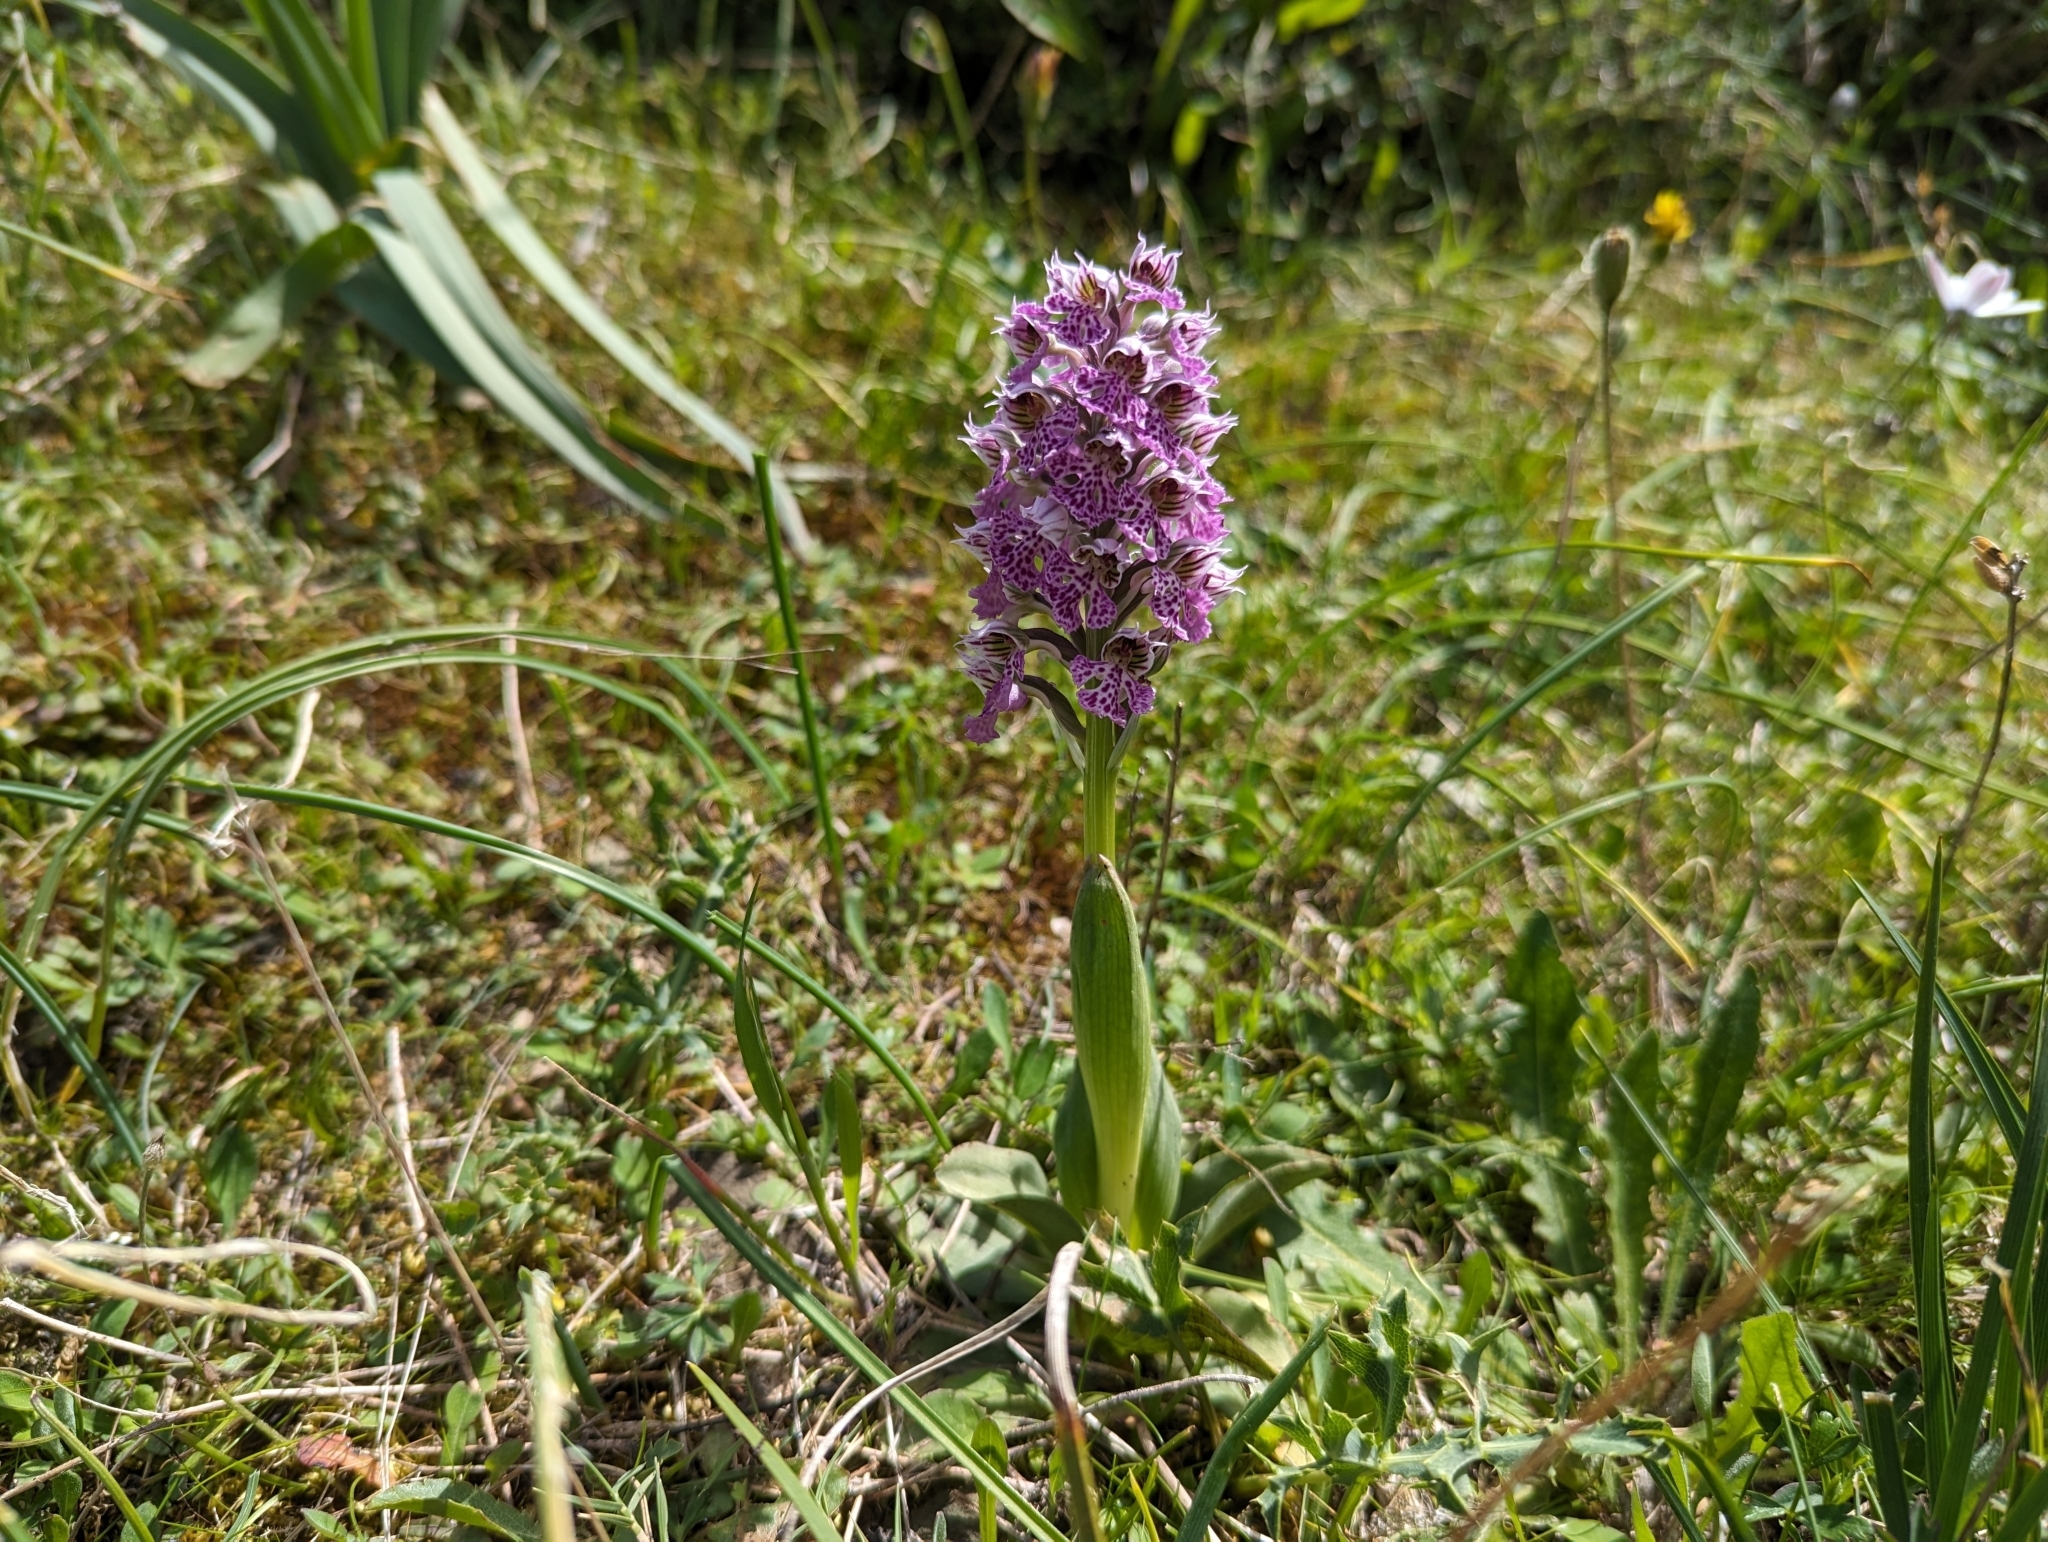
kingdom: Plantae
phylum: Tracheophyta
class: Liliopsida
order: Asparagales
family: Orchidaceae
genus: Neotinea
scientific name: Neotinea lactea
